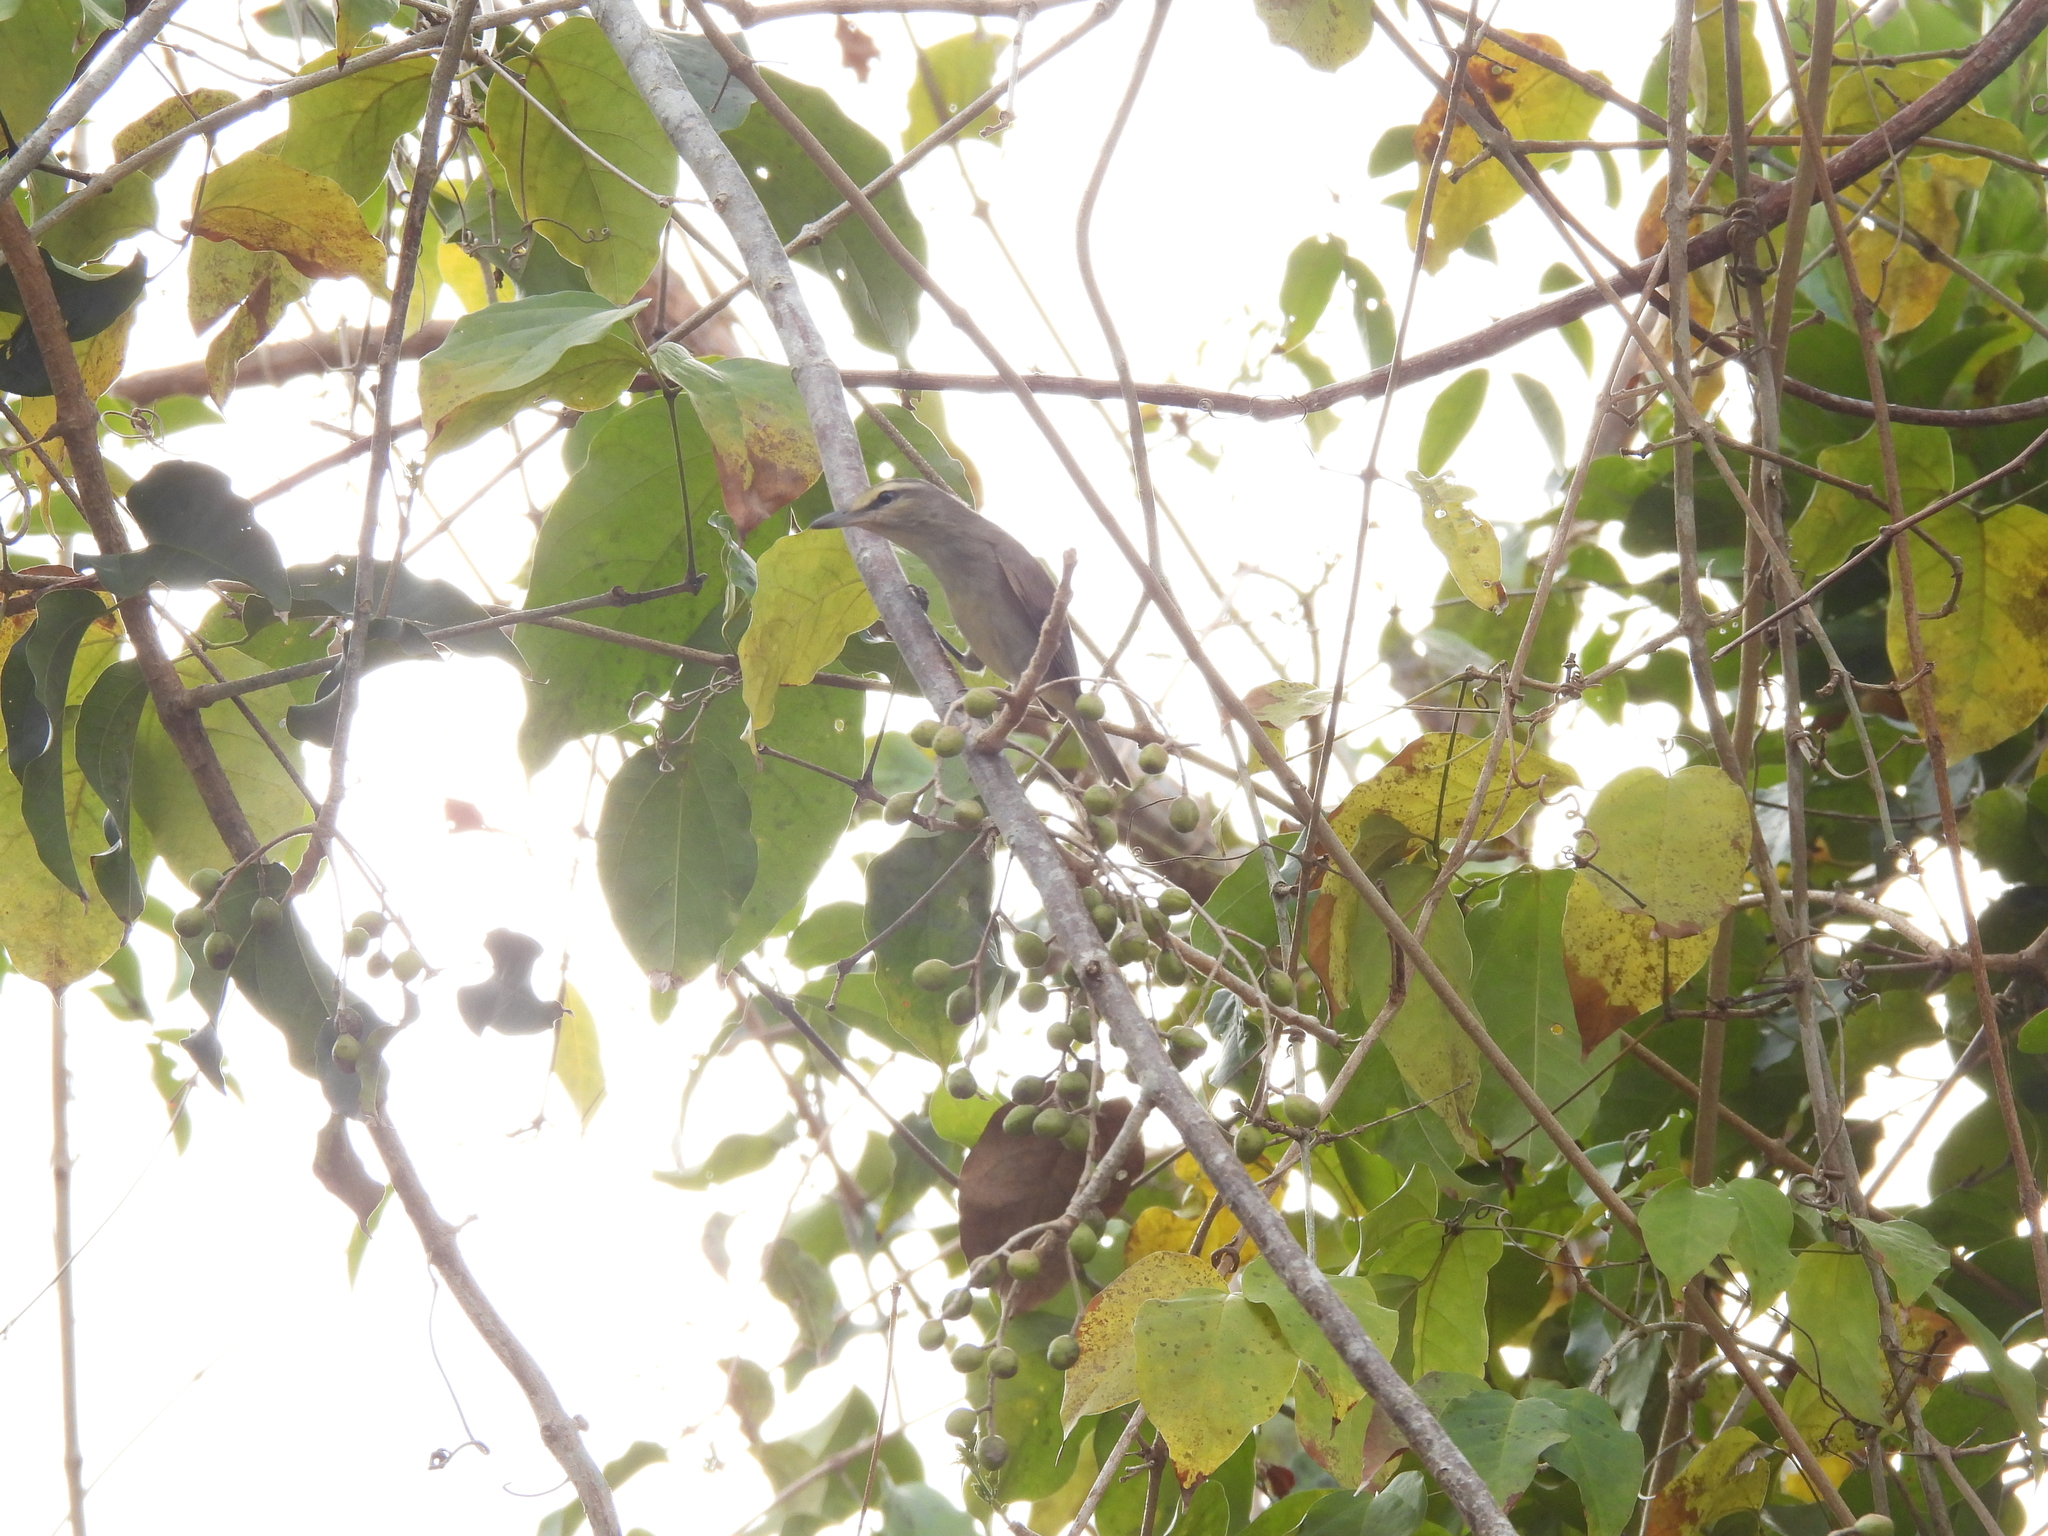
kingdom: Animalia
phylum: Chordata
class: Aves
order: Passeriformes
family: Vireonidae
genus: Vireo
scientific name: Vireo magister
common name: Yucatan vireo
